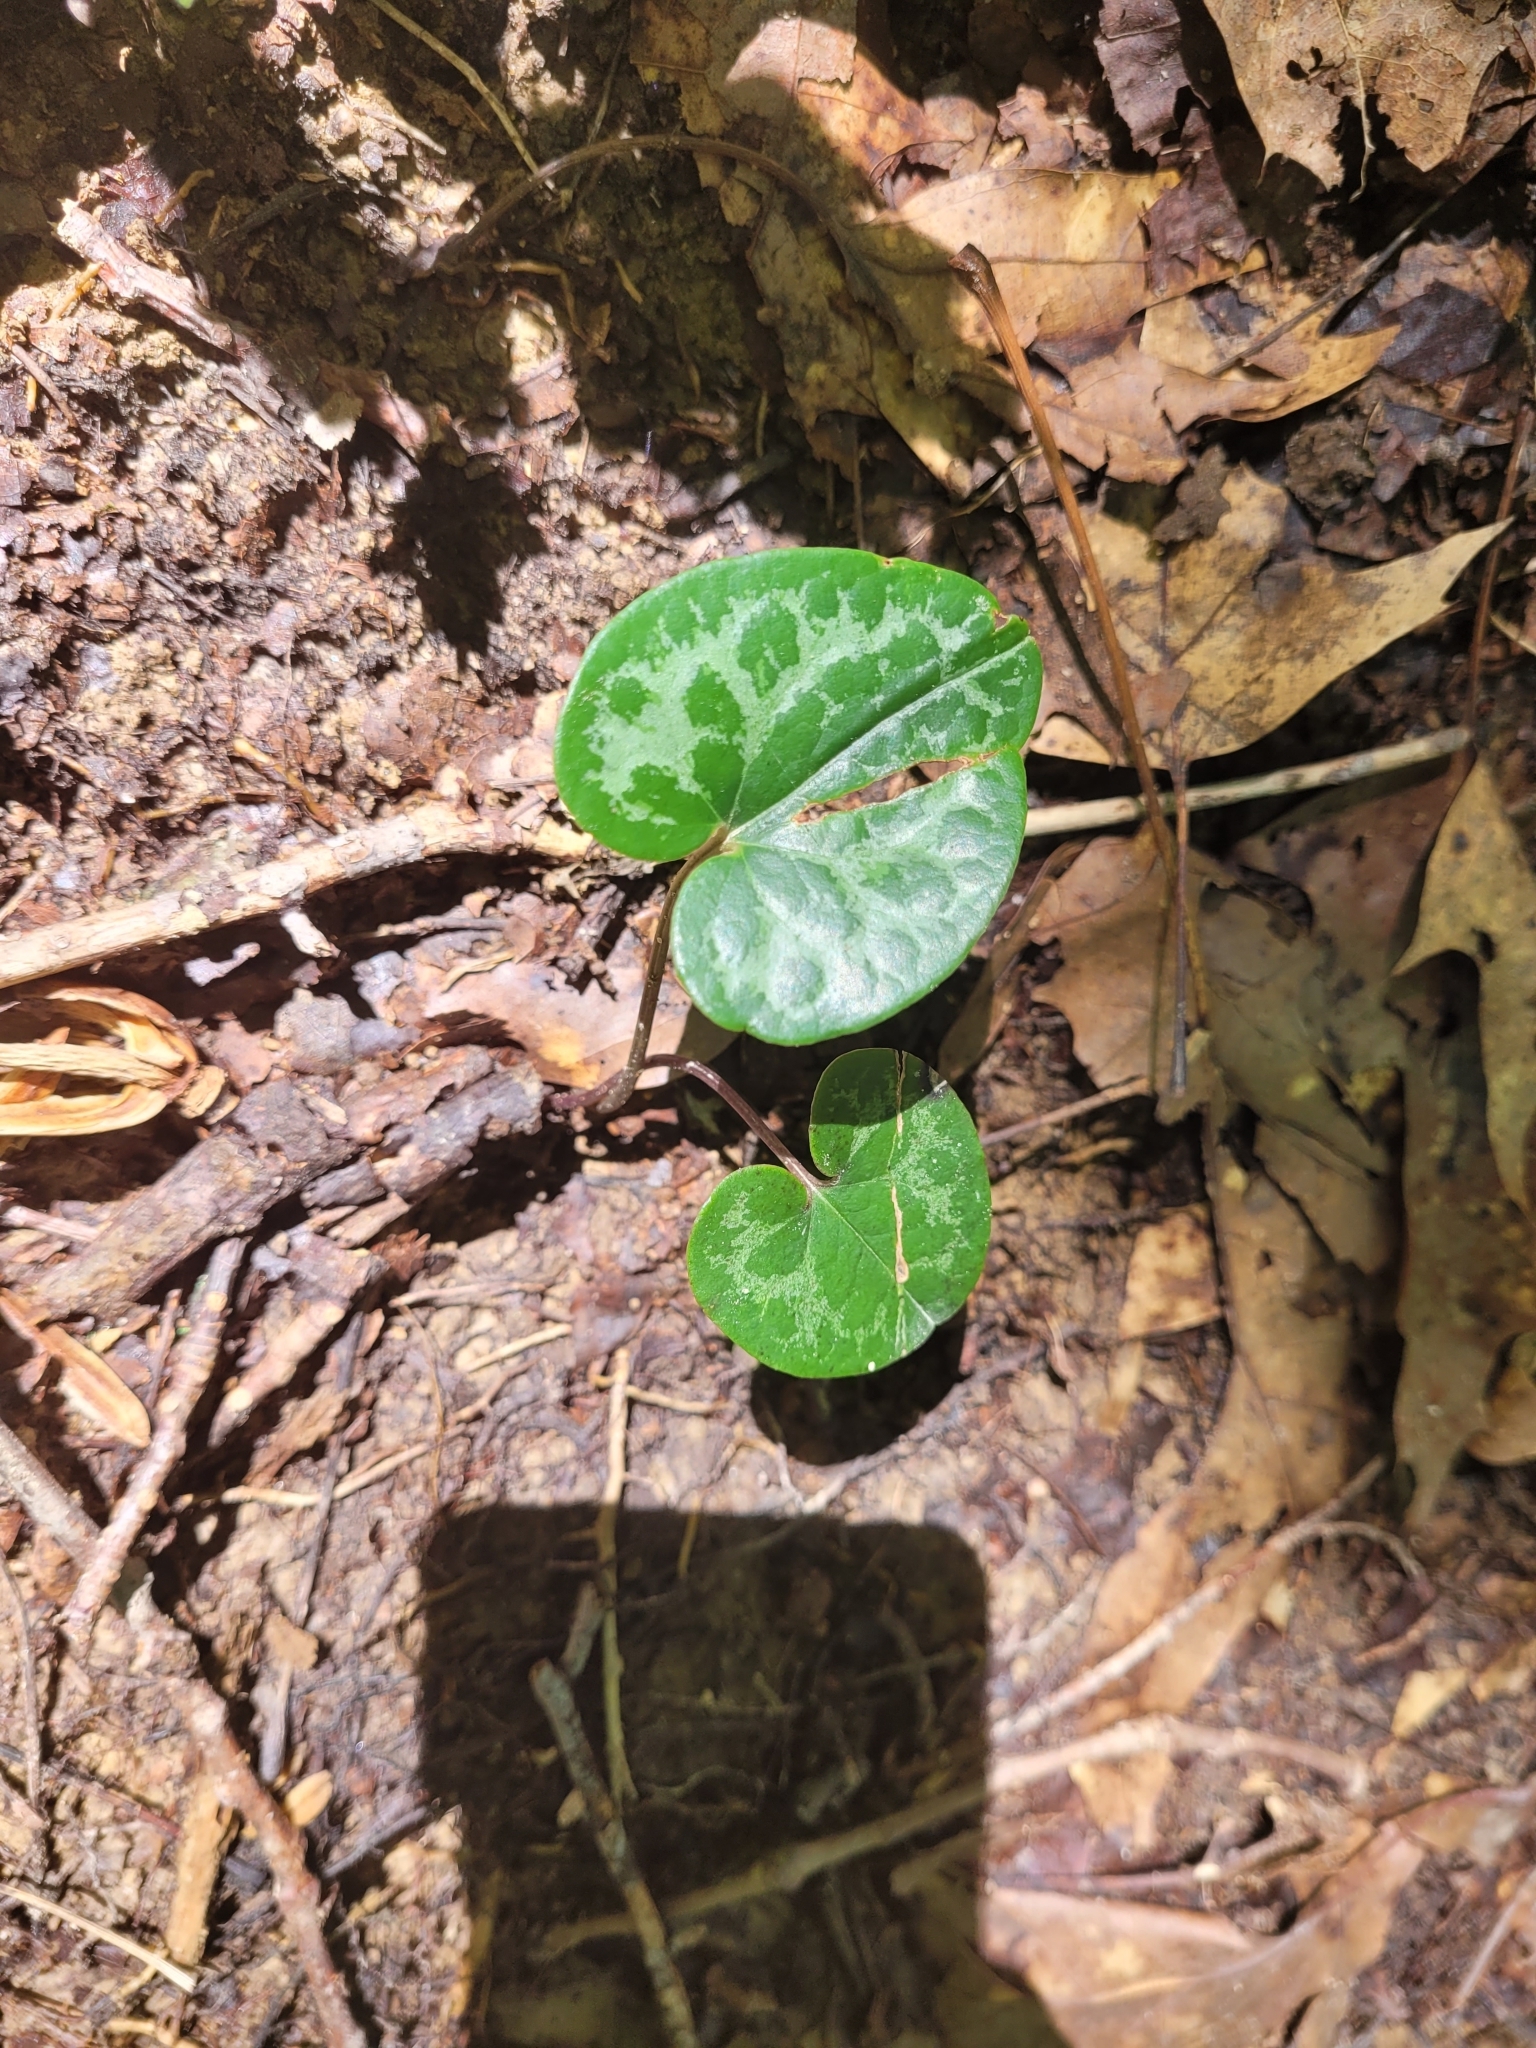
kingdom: Plantae
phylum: Tracheophyta
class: Magnoliopsida
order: Piperales
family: Aristolochiaceae
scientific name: Aristolochiaceae
